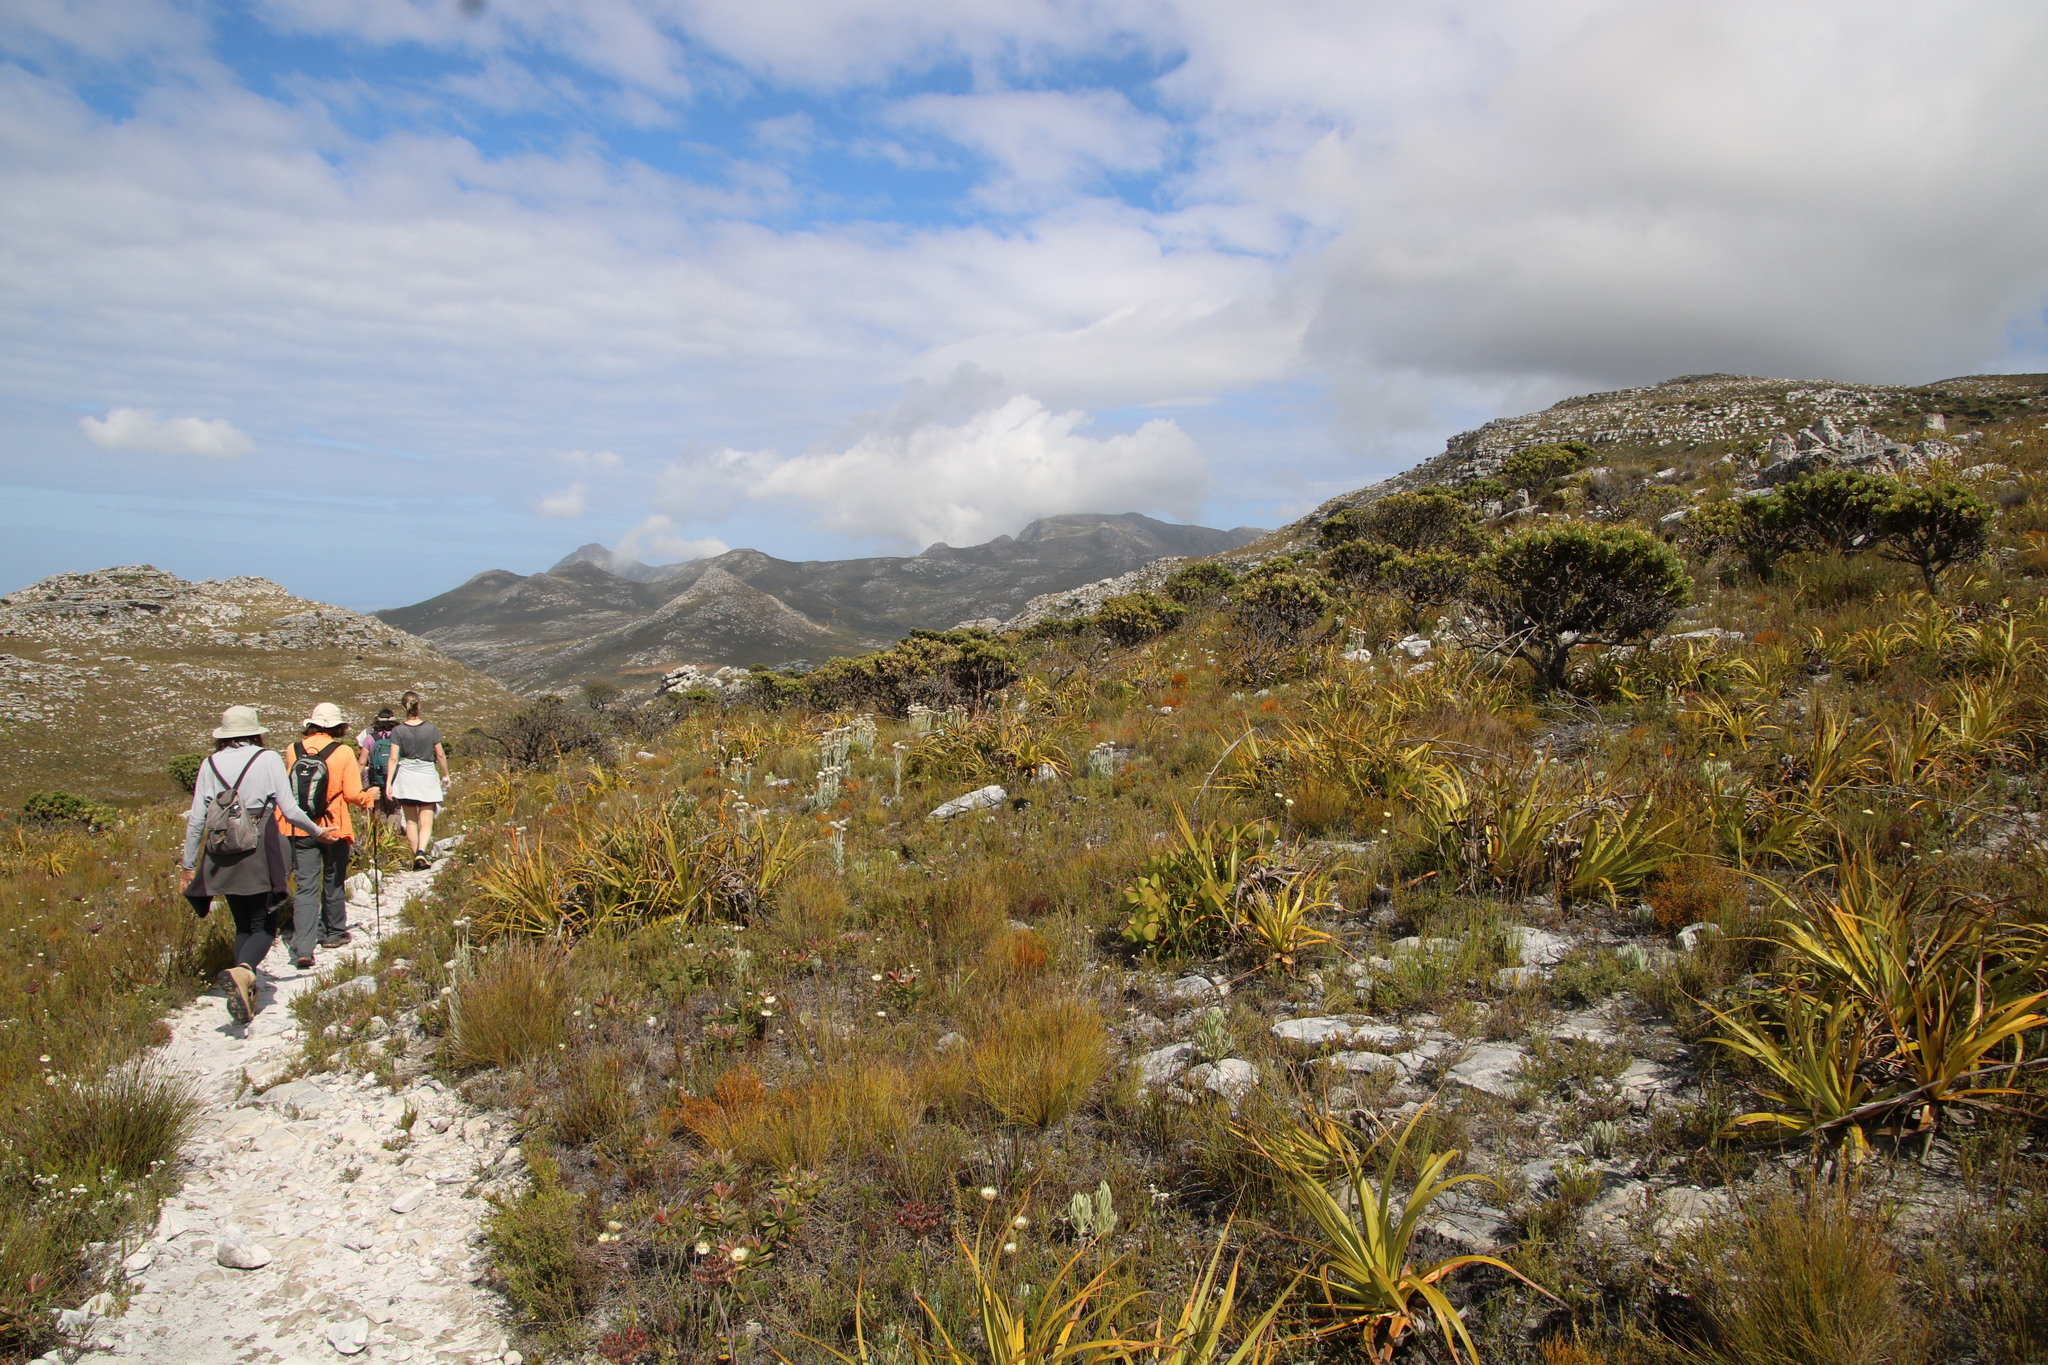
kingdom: Plantae
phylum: Tracheophyta
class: Magnoliopsida
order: Proteales
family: Proteaceae
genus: Mimetes
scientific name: Mimetes fimbriifolius
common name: Fringed bottlebrush
